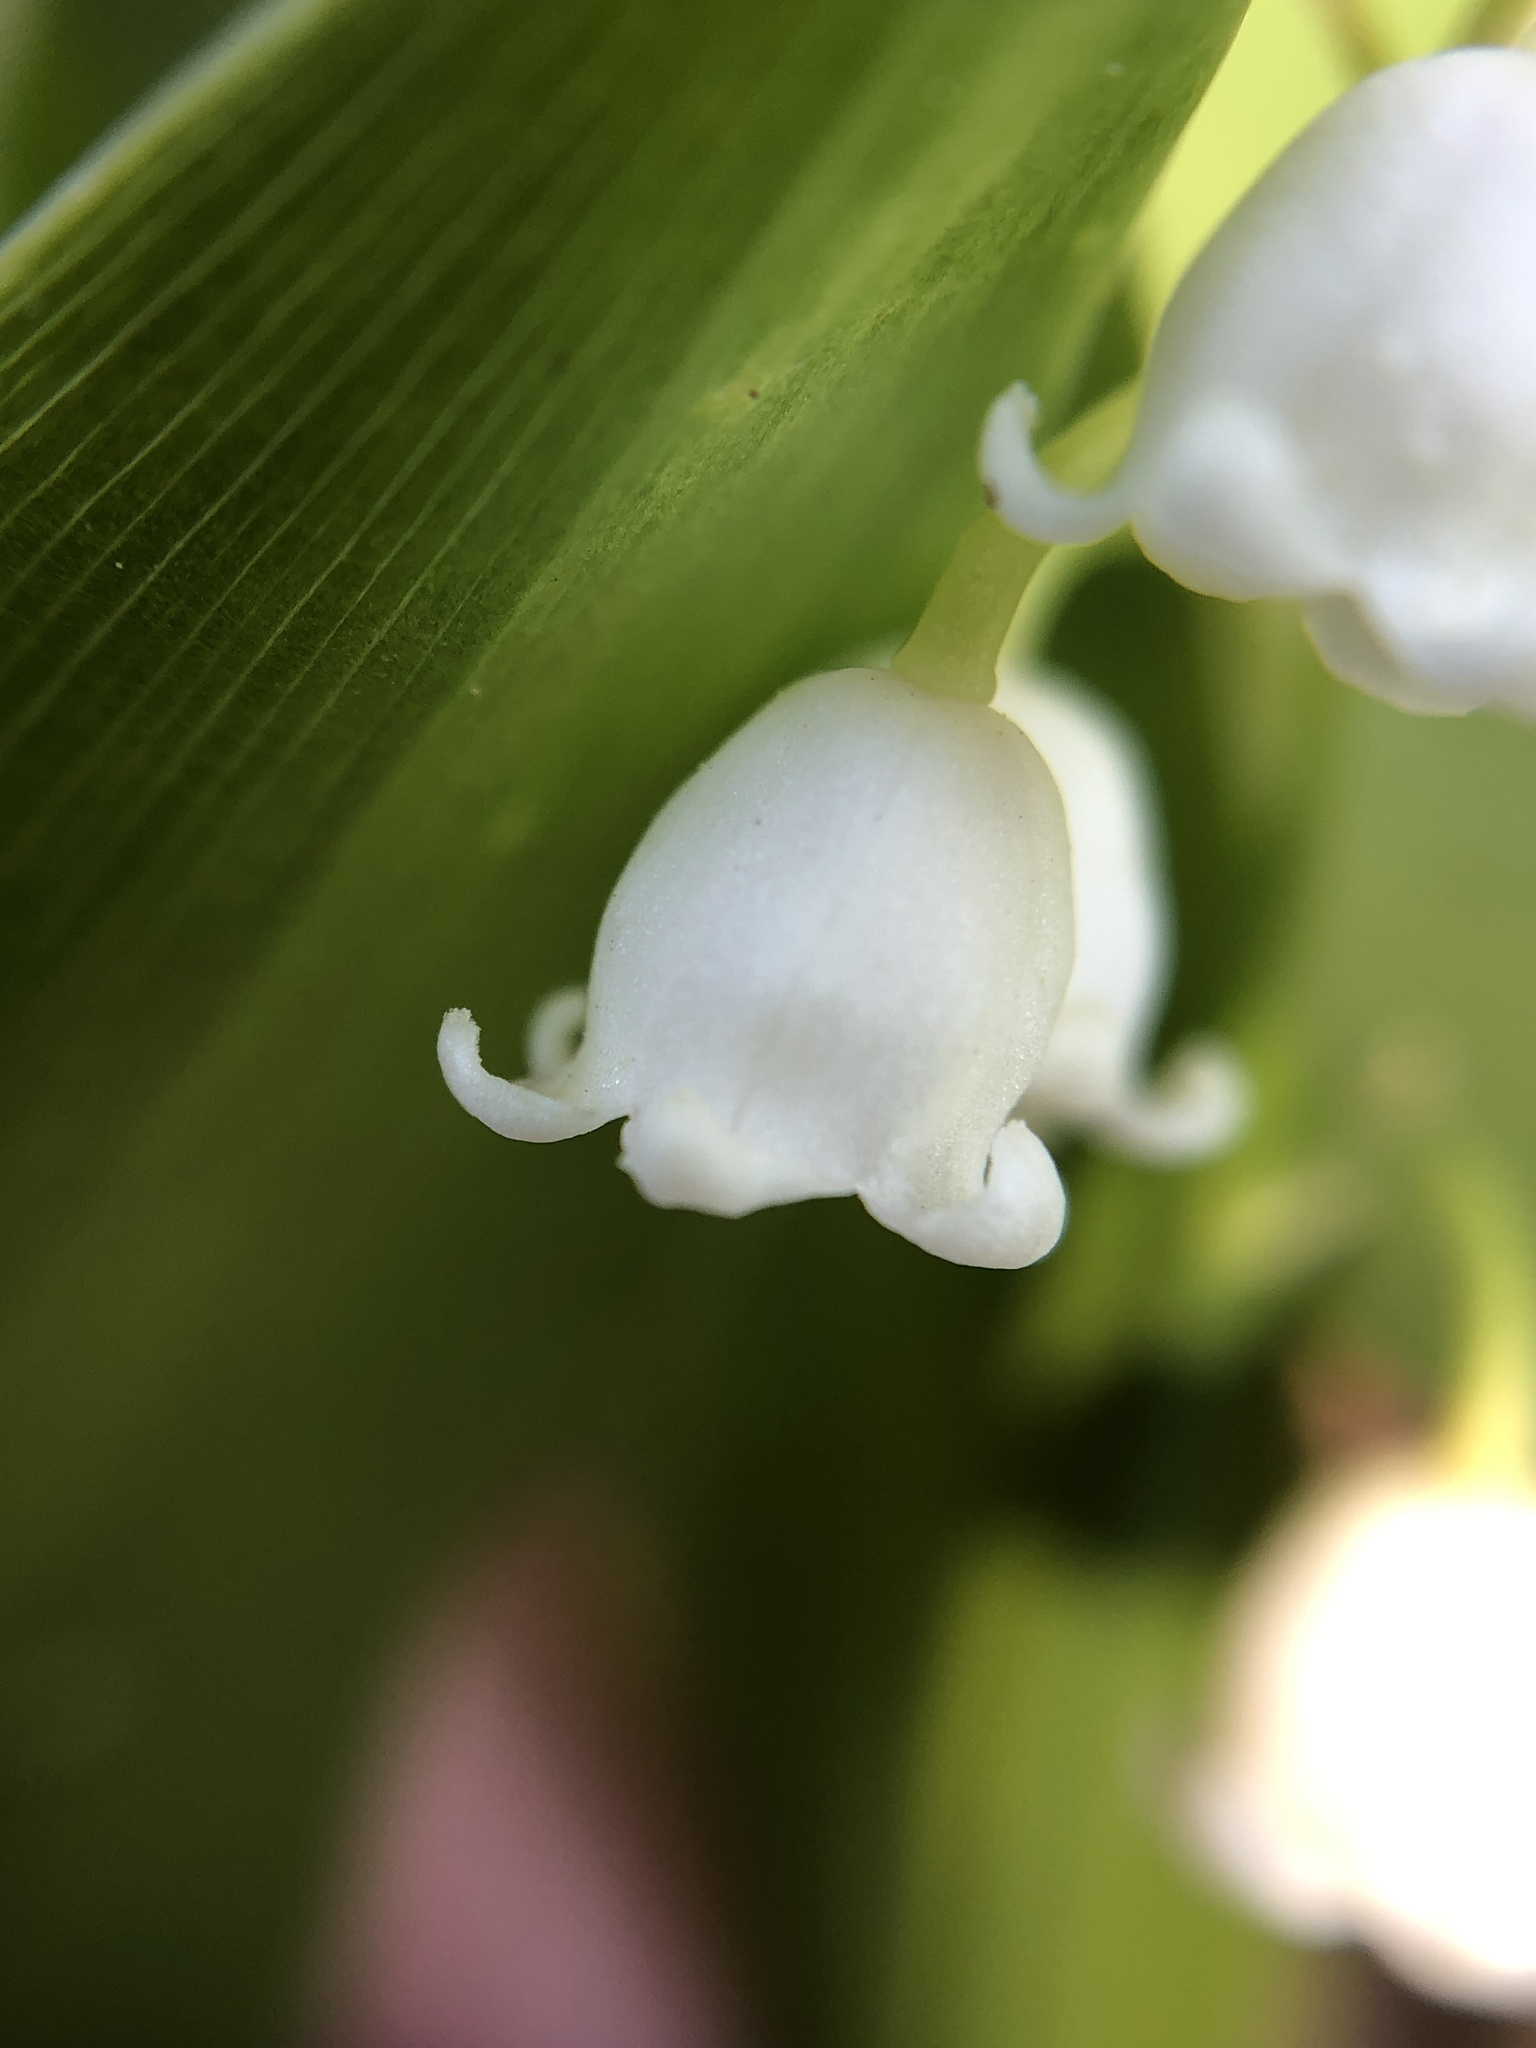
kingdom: Plantae
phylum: Tracheophyta
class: Liliopsida
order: Asparagales
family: Asparagaceae
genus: Convallaria
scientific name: Convallaria majalis
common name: Lily-of-the-valley
